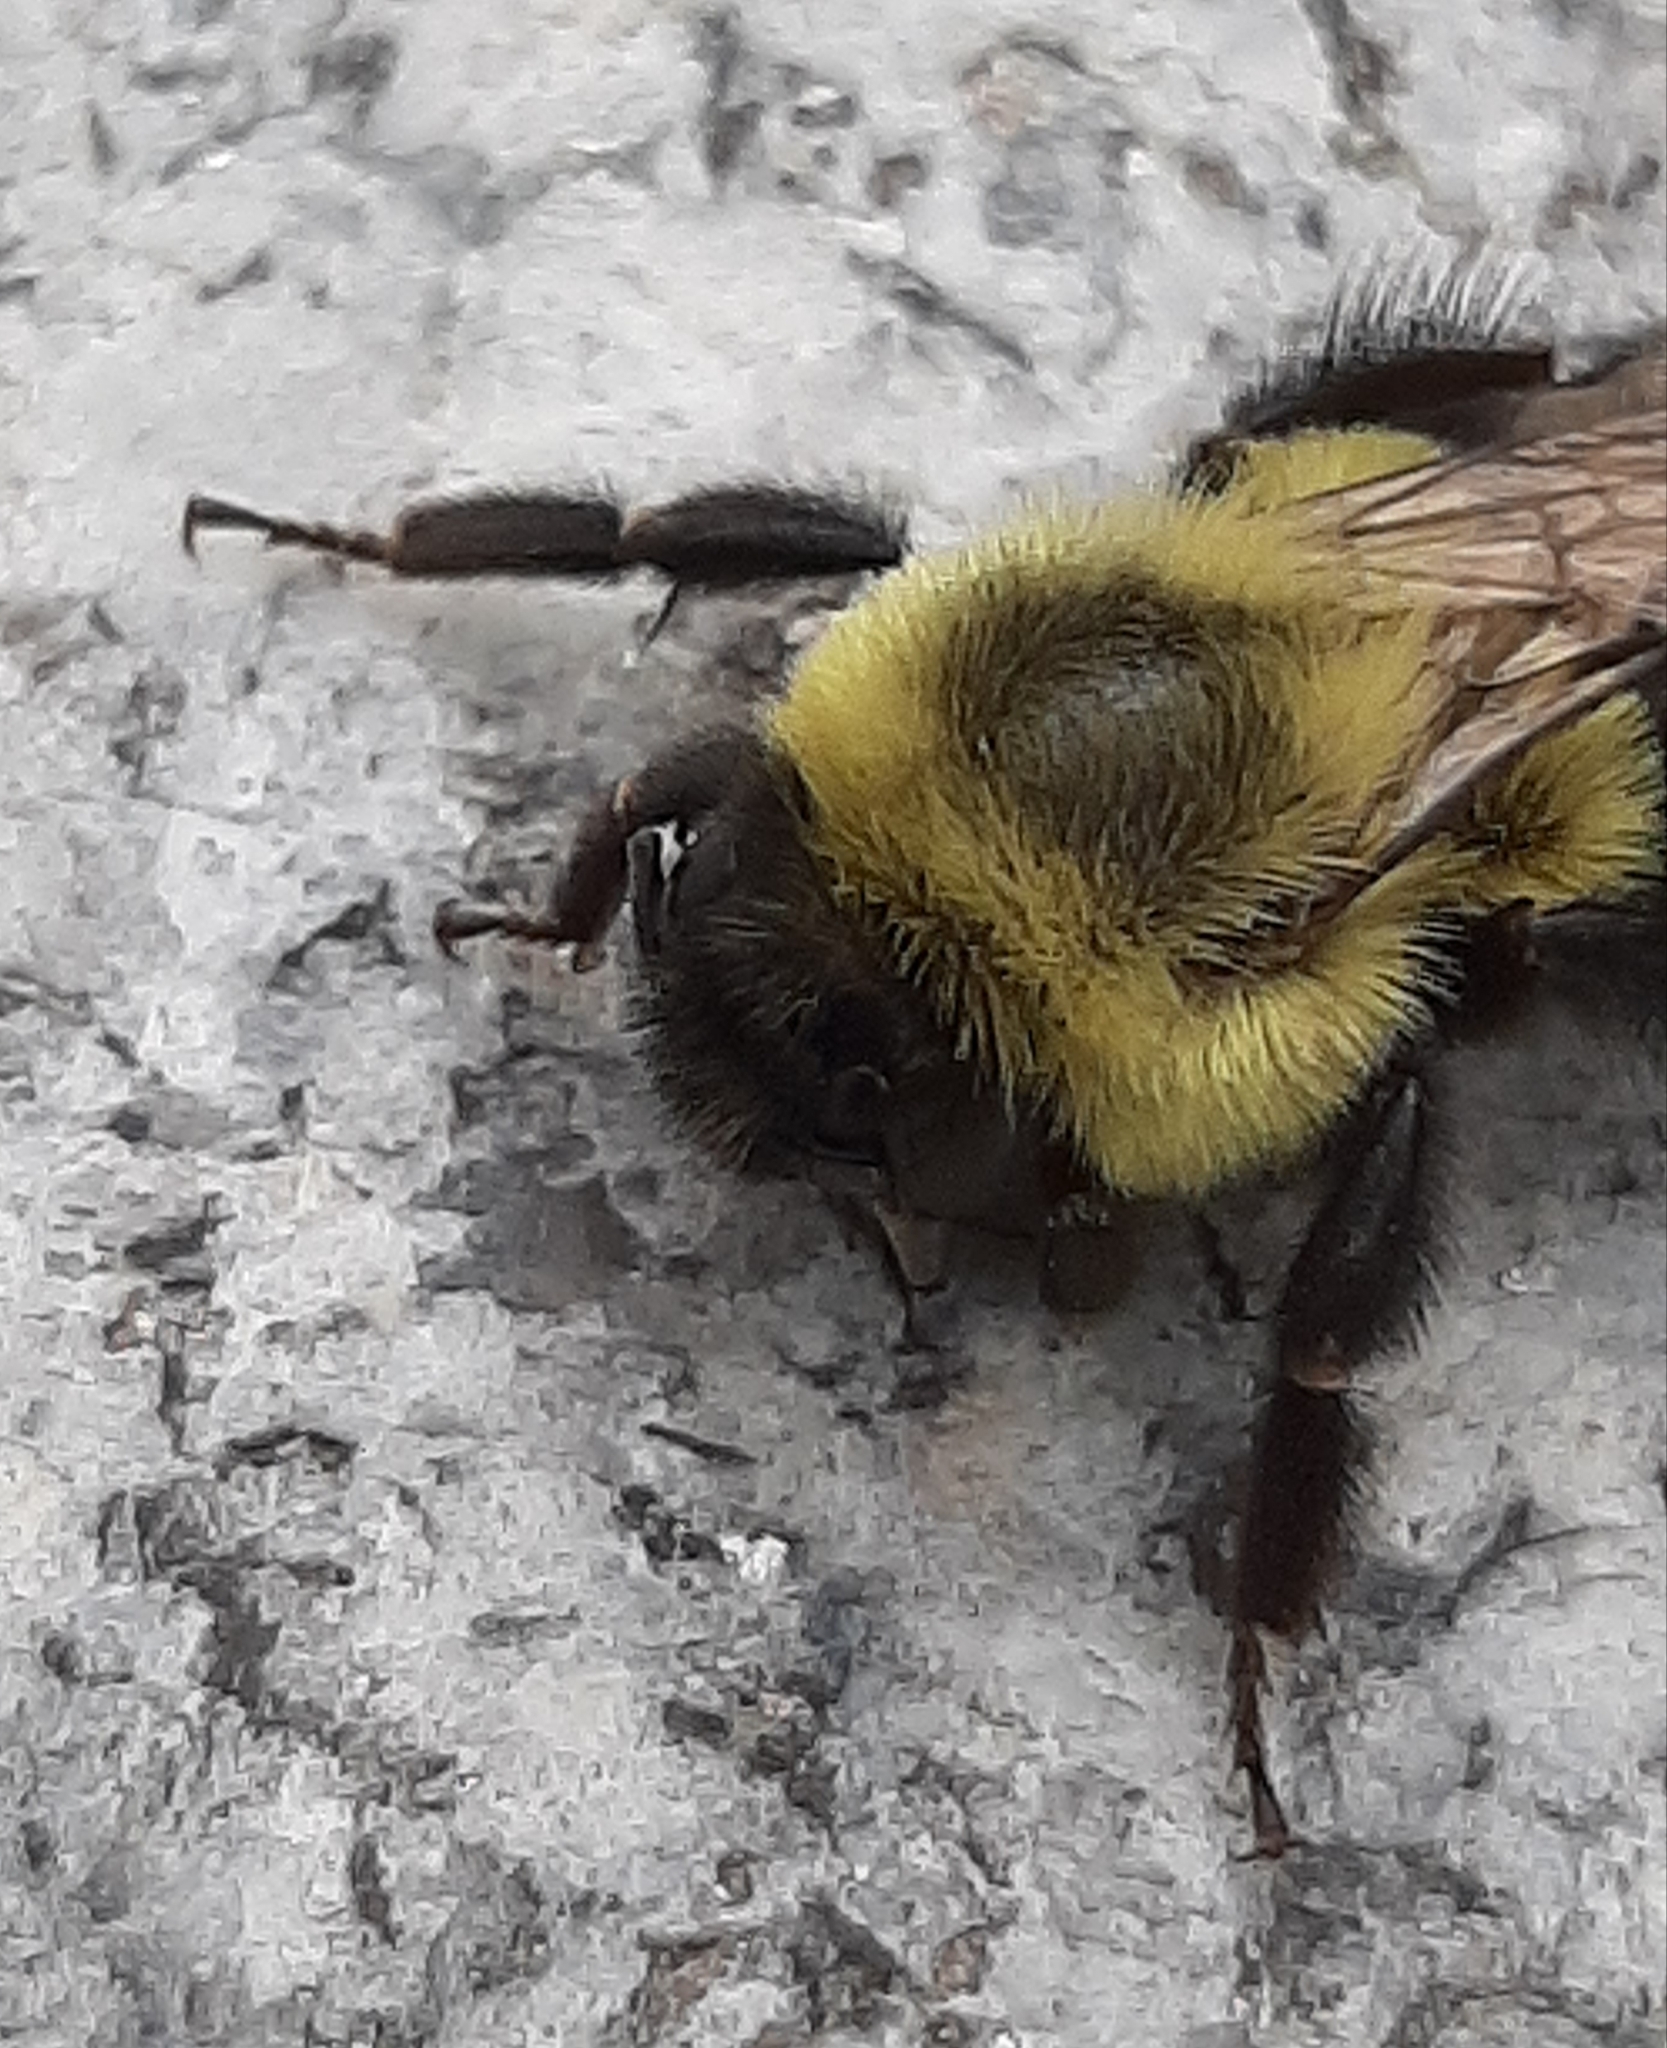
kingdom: Animalia
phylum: Arthropoda
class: Insecta
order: Hymenoptera
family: Apidae
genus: Bombus
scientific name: Bombus impatiens
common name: Common eastern bumble bee
